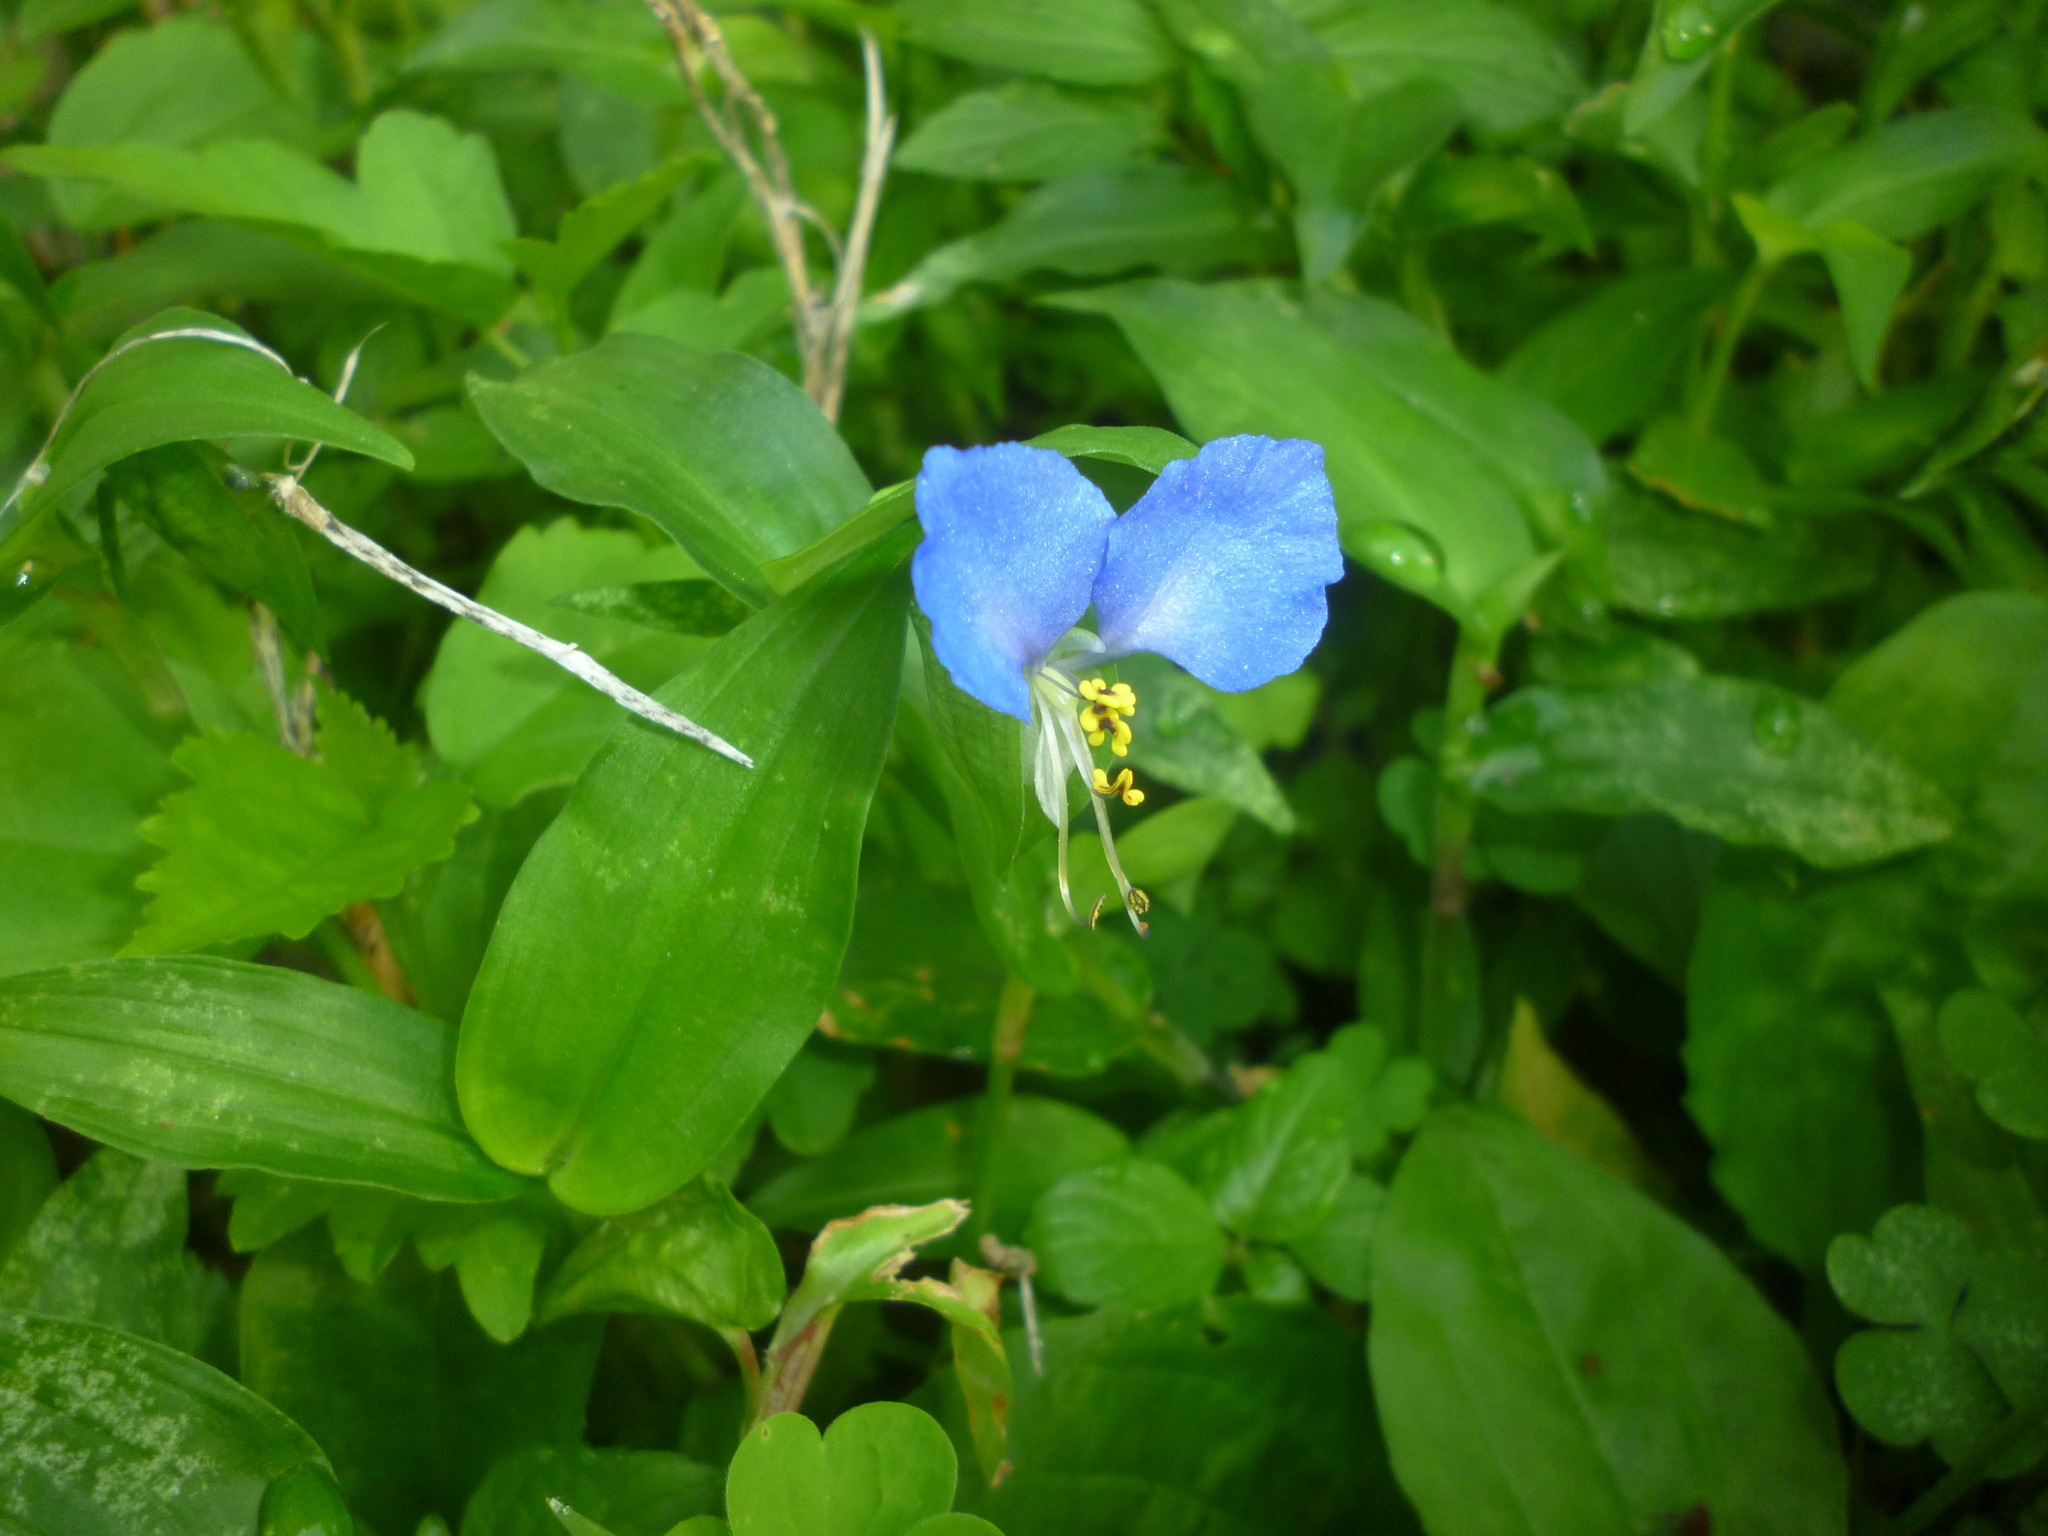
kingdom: Plantae
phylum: Tracheophyta
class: Liliopsida
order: Commelinales
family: Commelinaceae
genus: Commelina
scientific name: Commelina communis
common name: Asiatic dayflower
